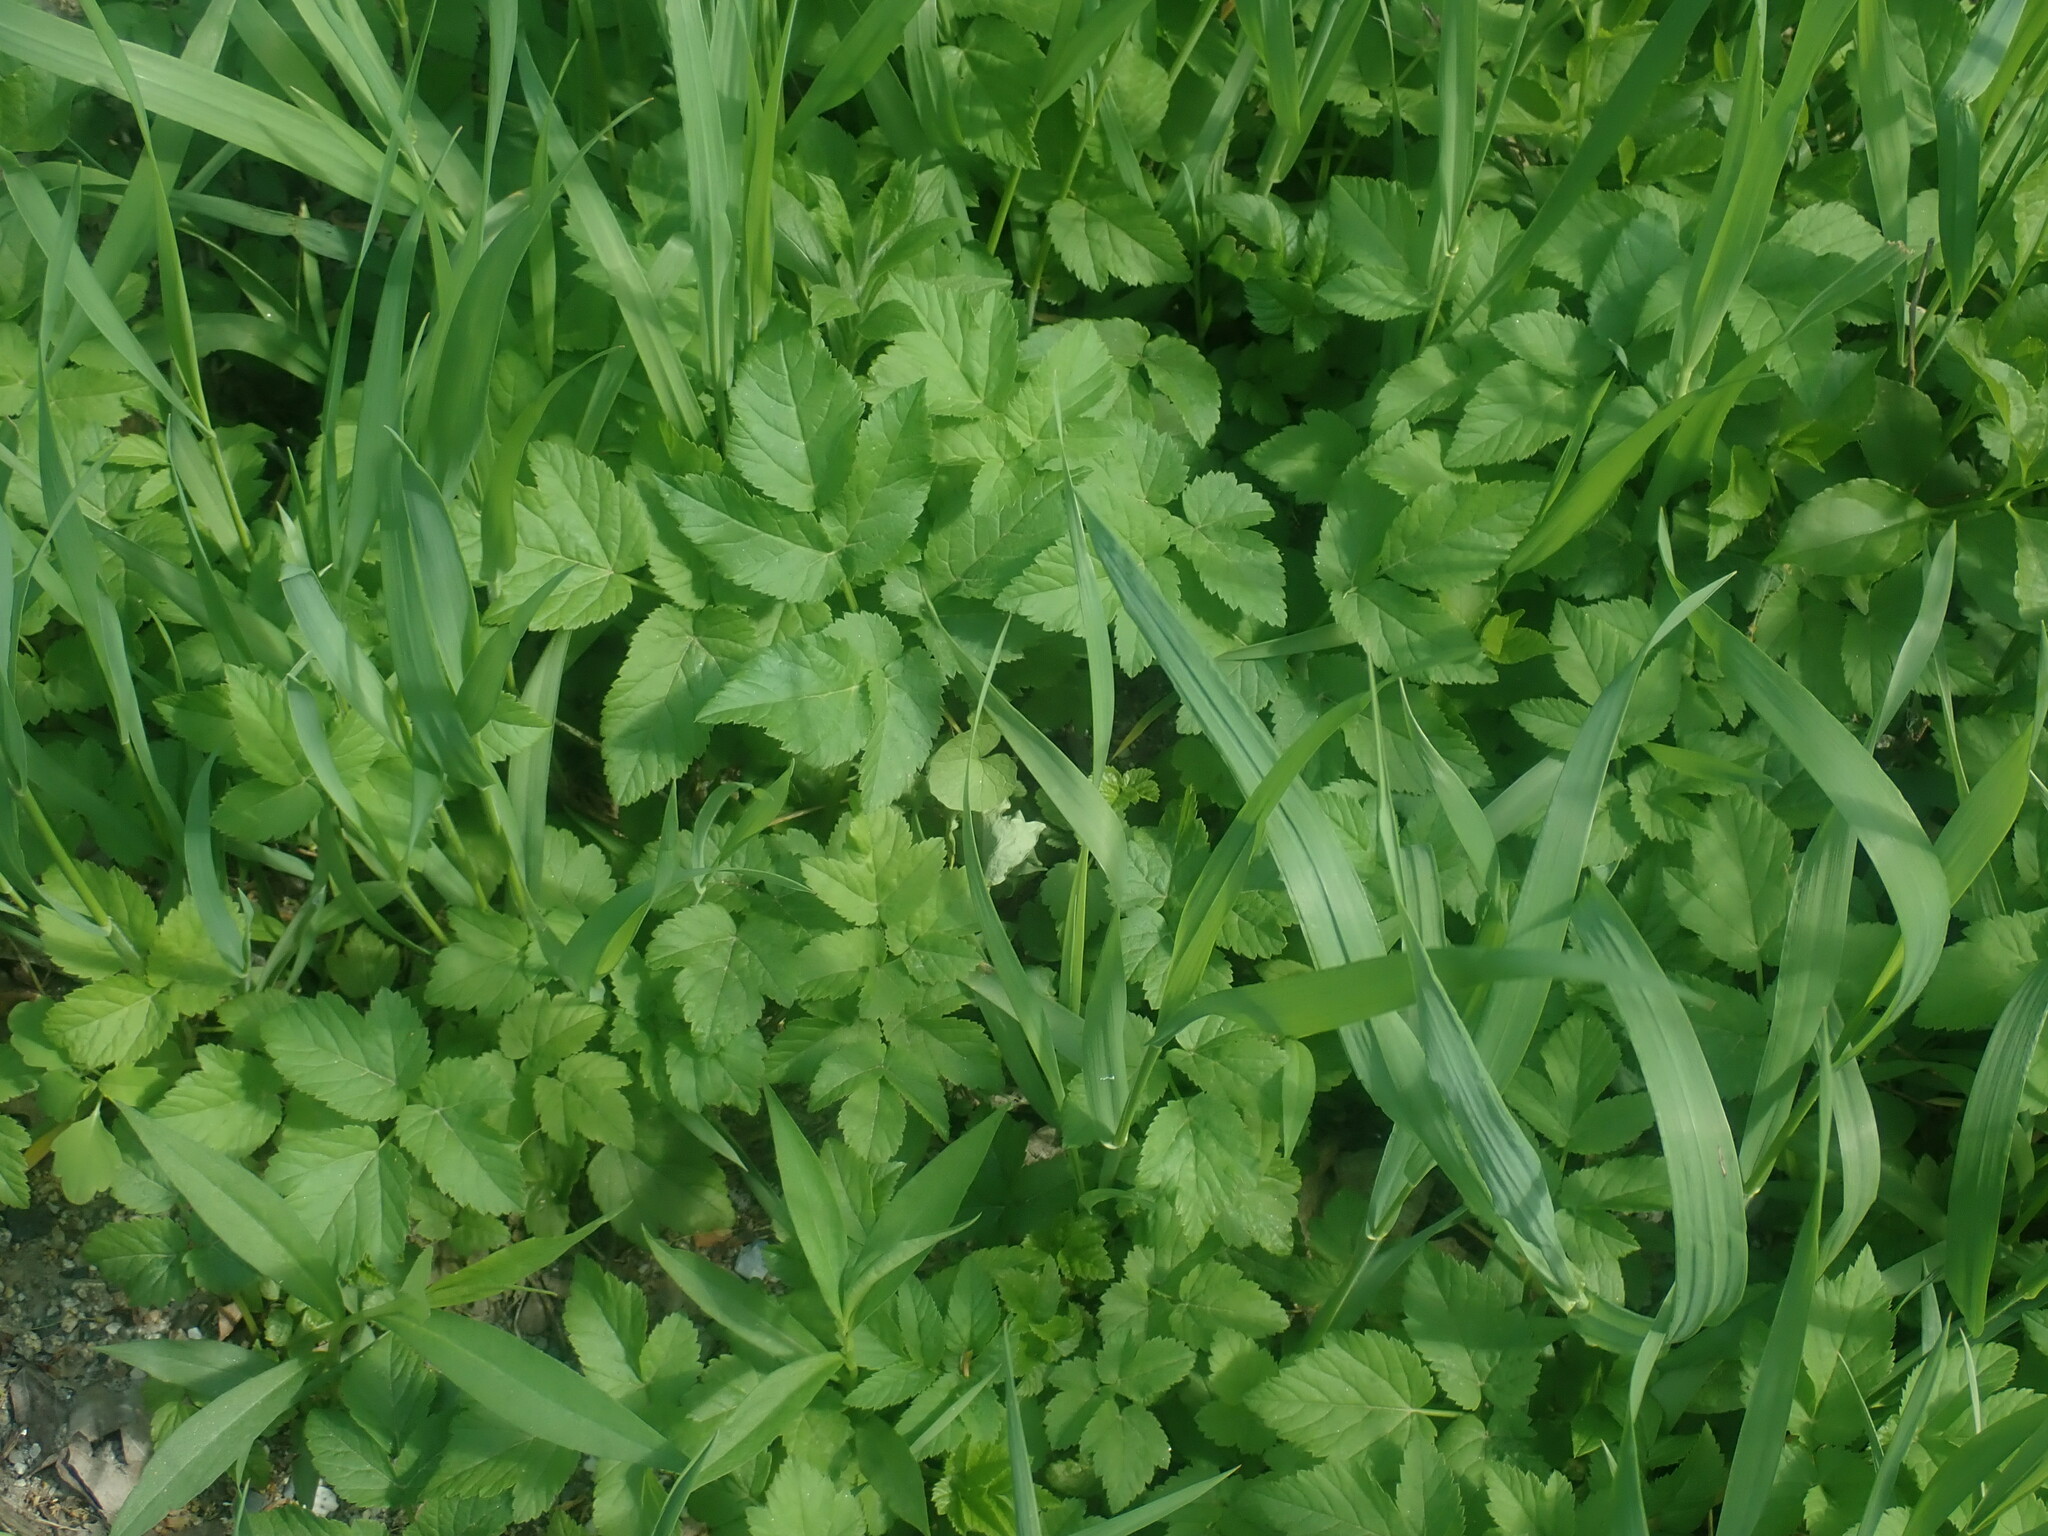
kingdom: Plantae
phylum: Tracheophyta
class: Magnoliopsida
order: Apiales
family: Apiaceae
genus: Aegopodium
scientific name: Aegopodium podagraria
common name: Ground-elder
